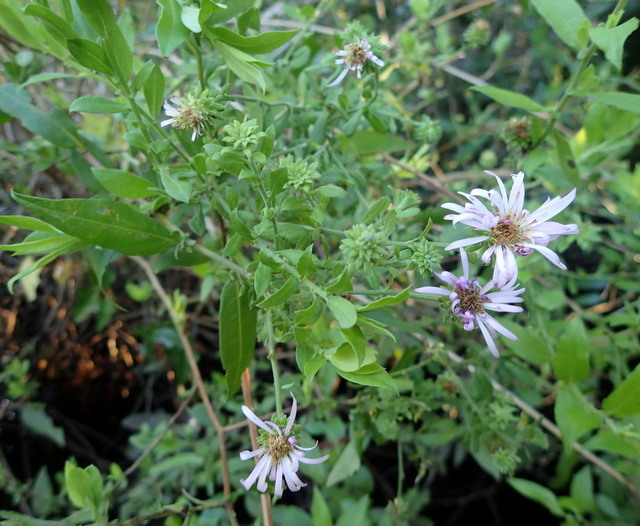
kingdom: Plantae
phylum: Tracheophyta
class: Magnoliopsida
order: Asterales
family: Asteraceae
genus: Ampelaster
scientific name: Ampelaster carolinianus
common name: Climbing aster
